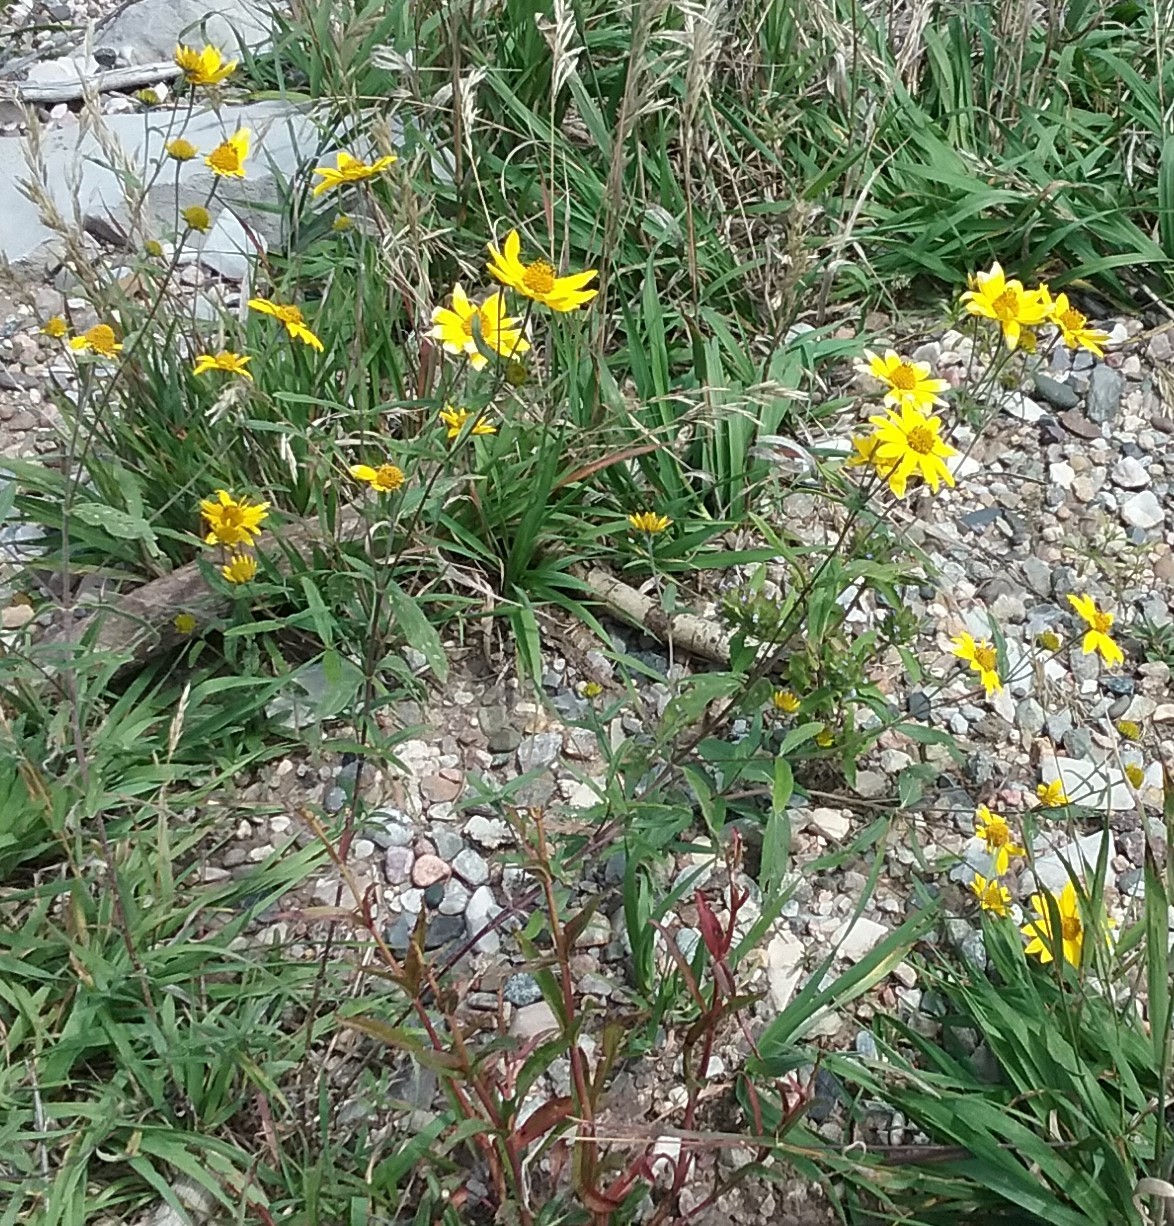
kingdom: Plantae
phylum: Tracheophyta
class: Magnoliopsida
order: Asterales
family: Asteraceae
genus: Heliomeris
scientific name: Heliomeris multiflora
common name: Showy goldeneye
